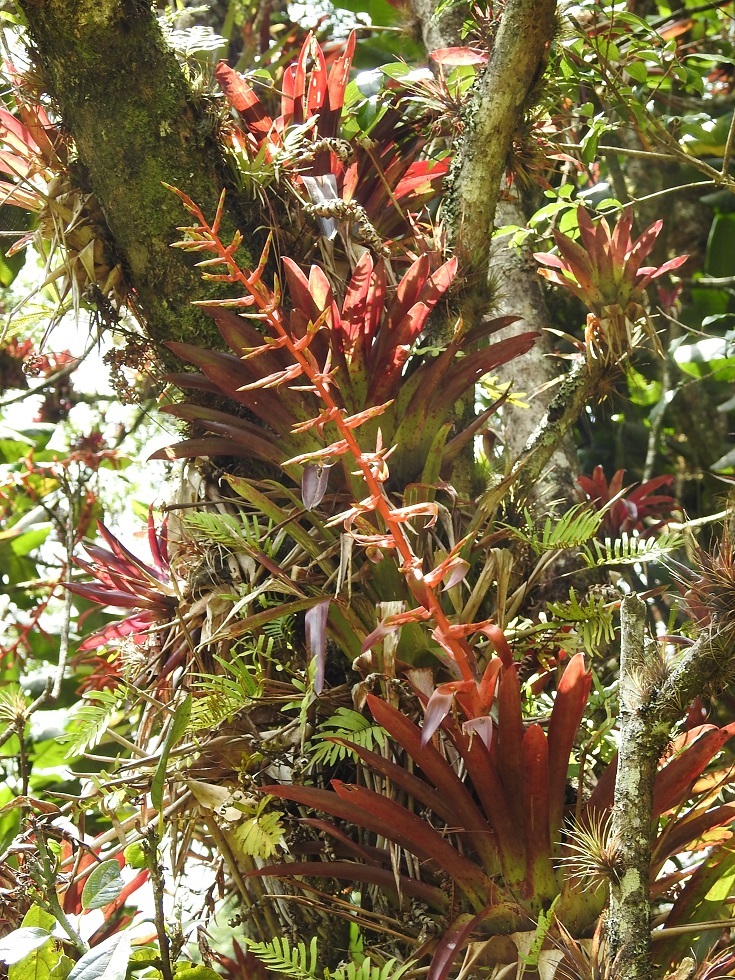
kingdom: Plantae
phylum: Tracheophyta
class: Liliopsida
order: Poales
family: Bromeliaceae
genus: Tillandsia
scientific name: Tillandsia guatemalensis
